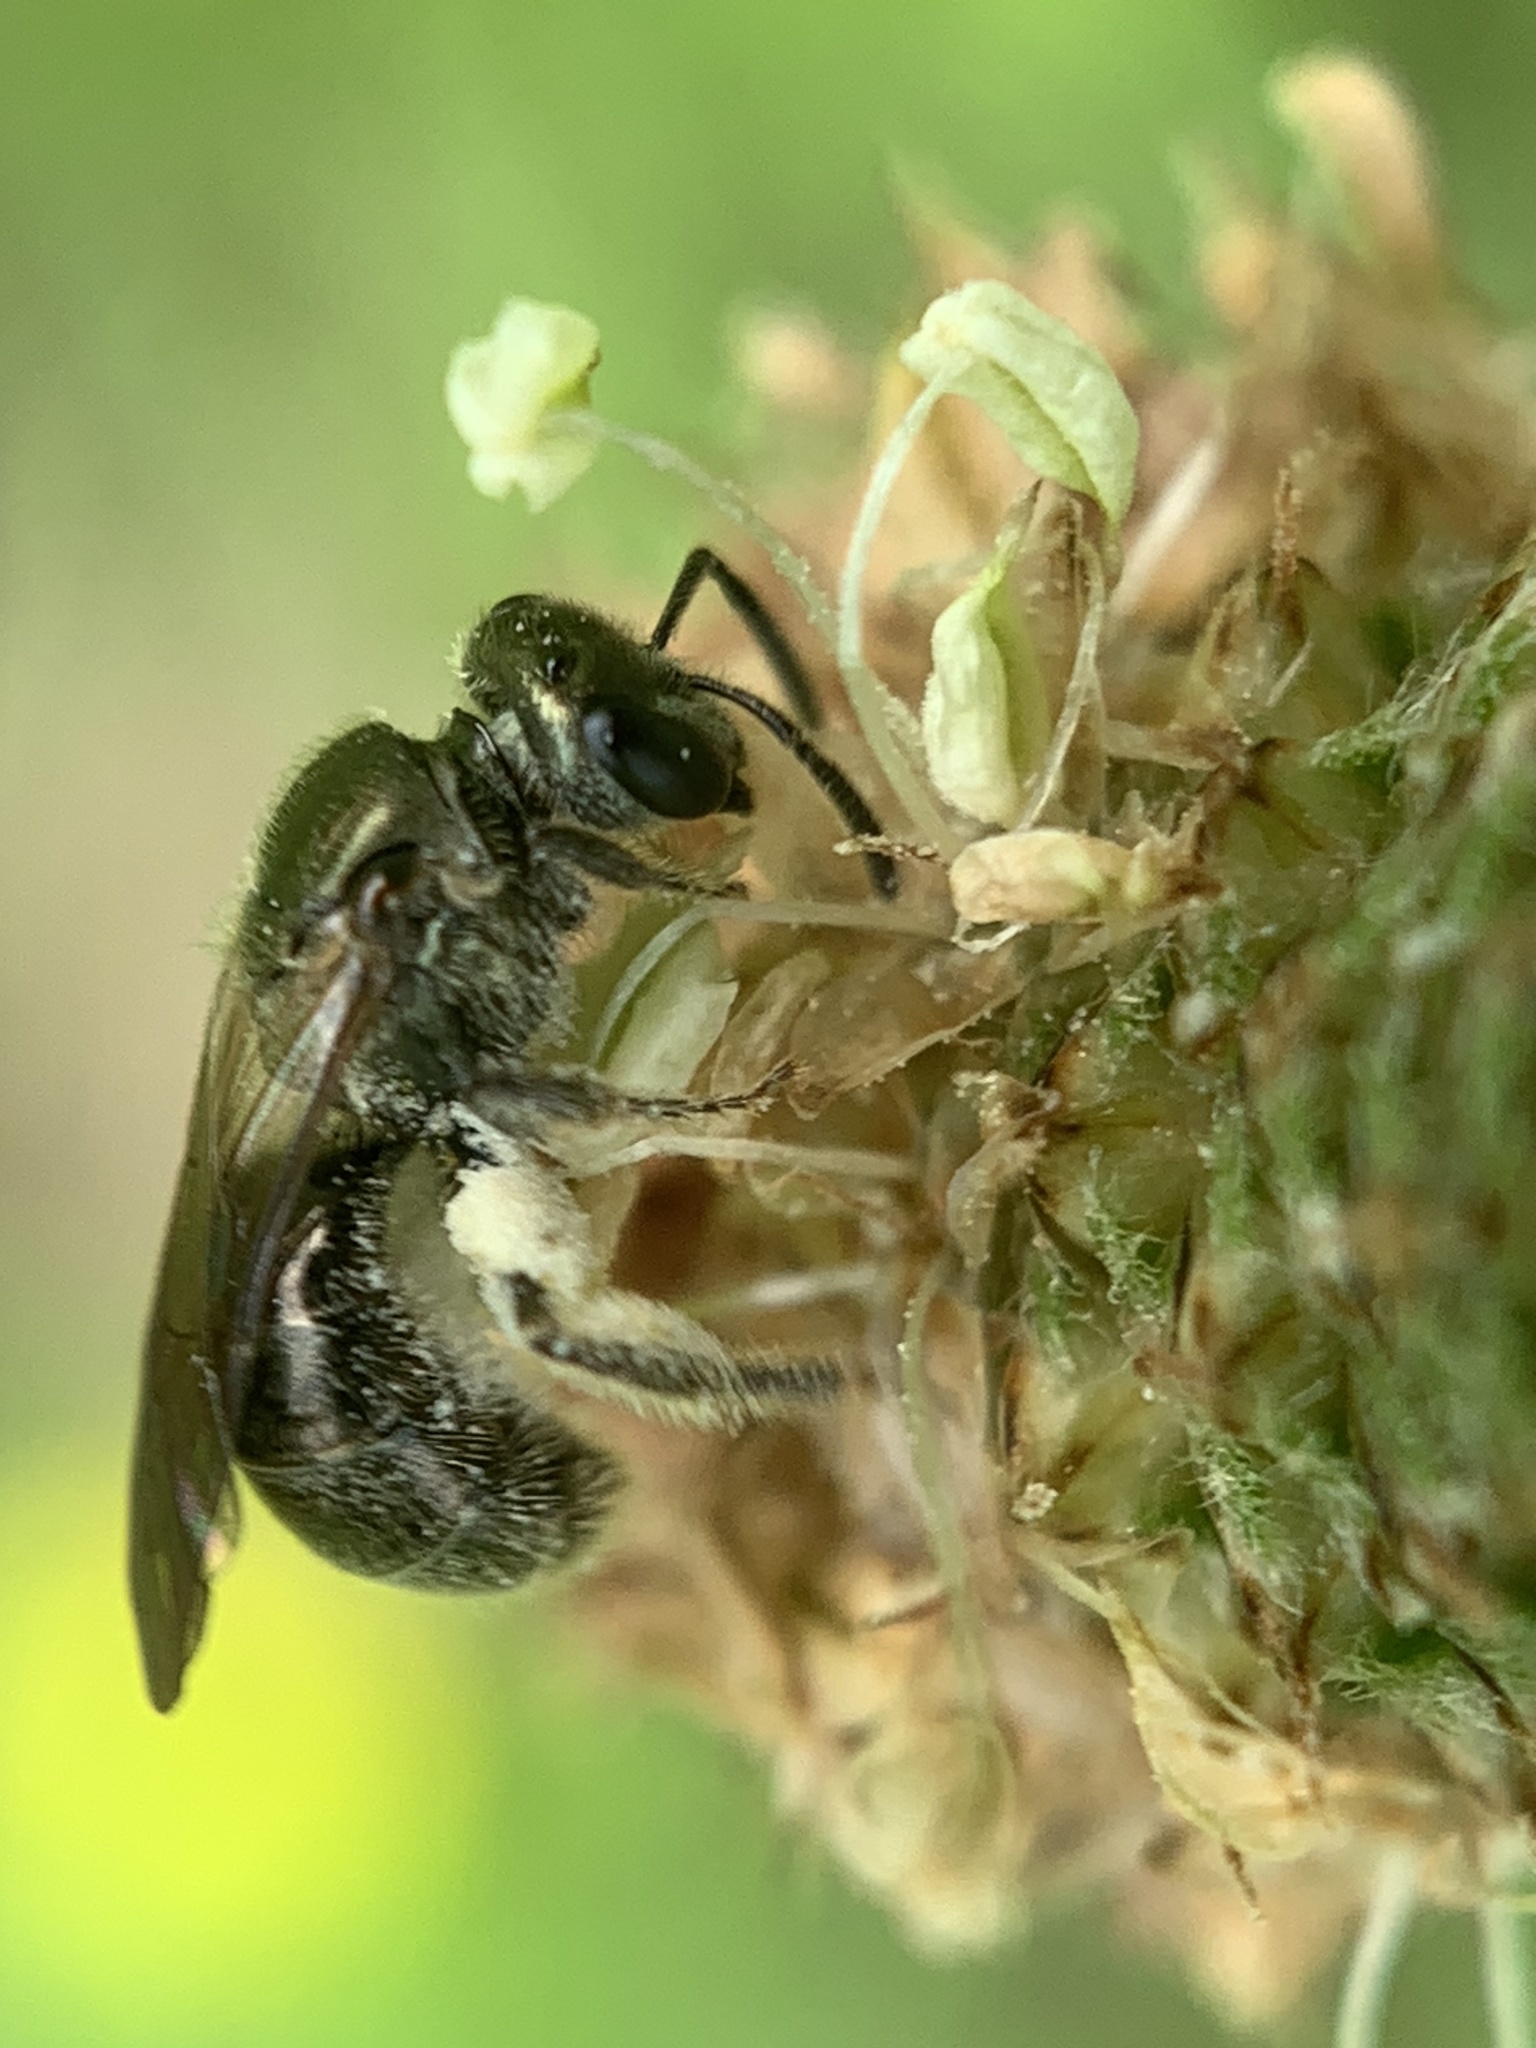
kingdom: Animalia
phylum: Arthropoda
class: Insecta
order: Hymenoptera
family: Halictidae
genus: Dialictus
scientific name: Dialictus
